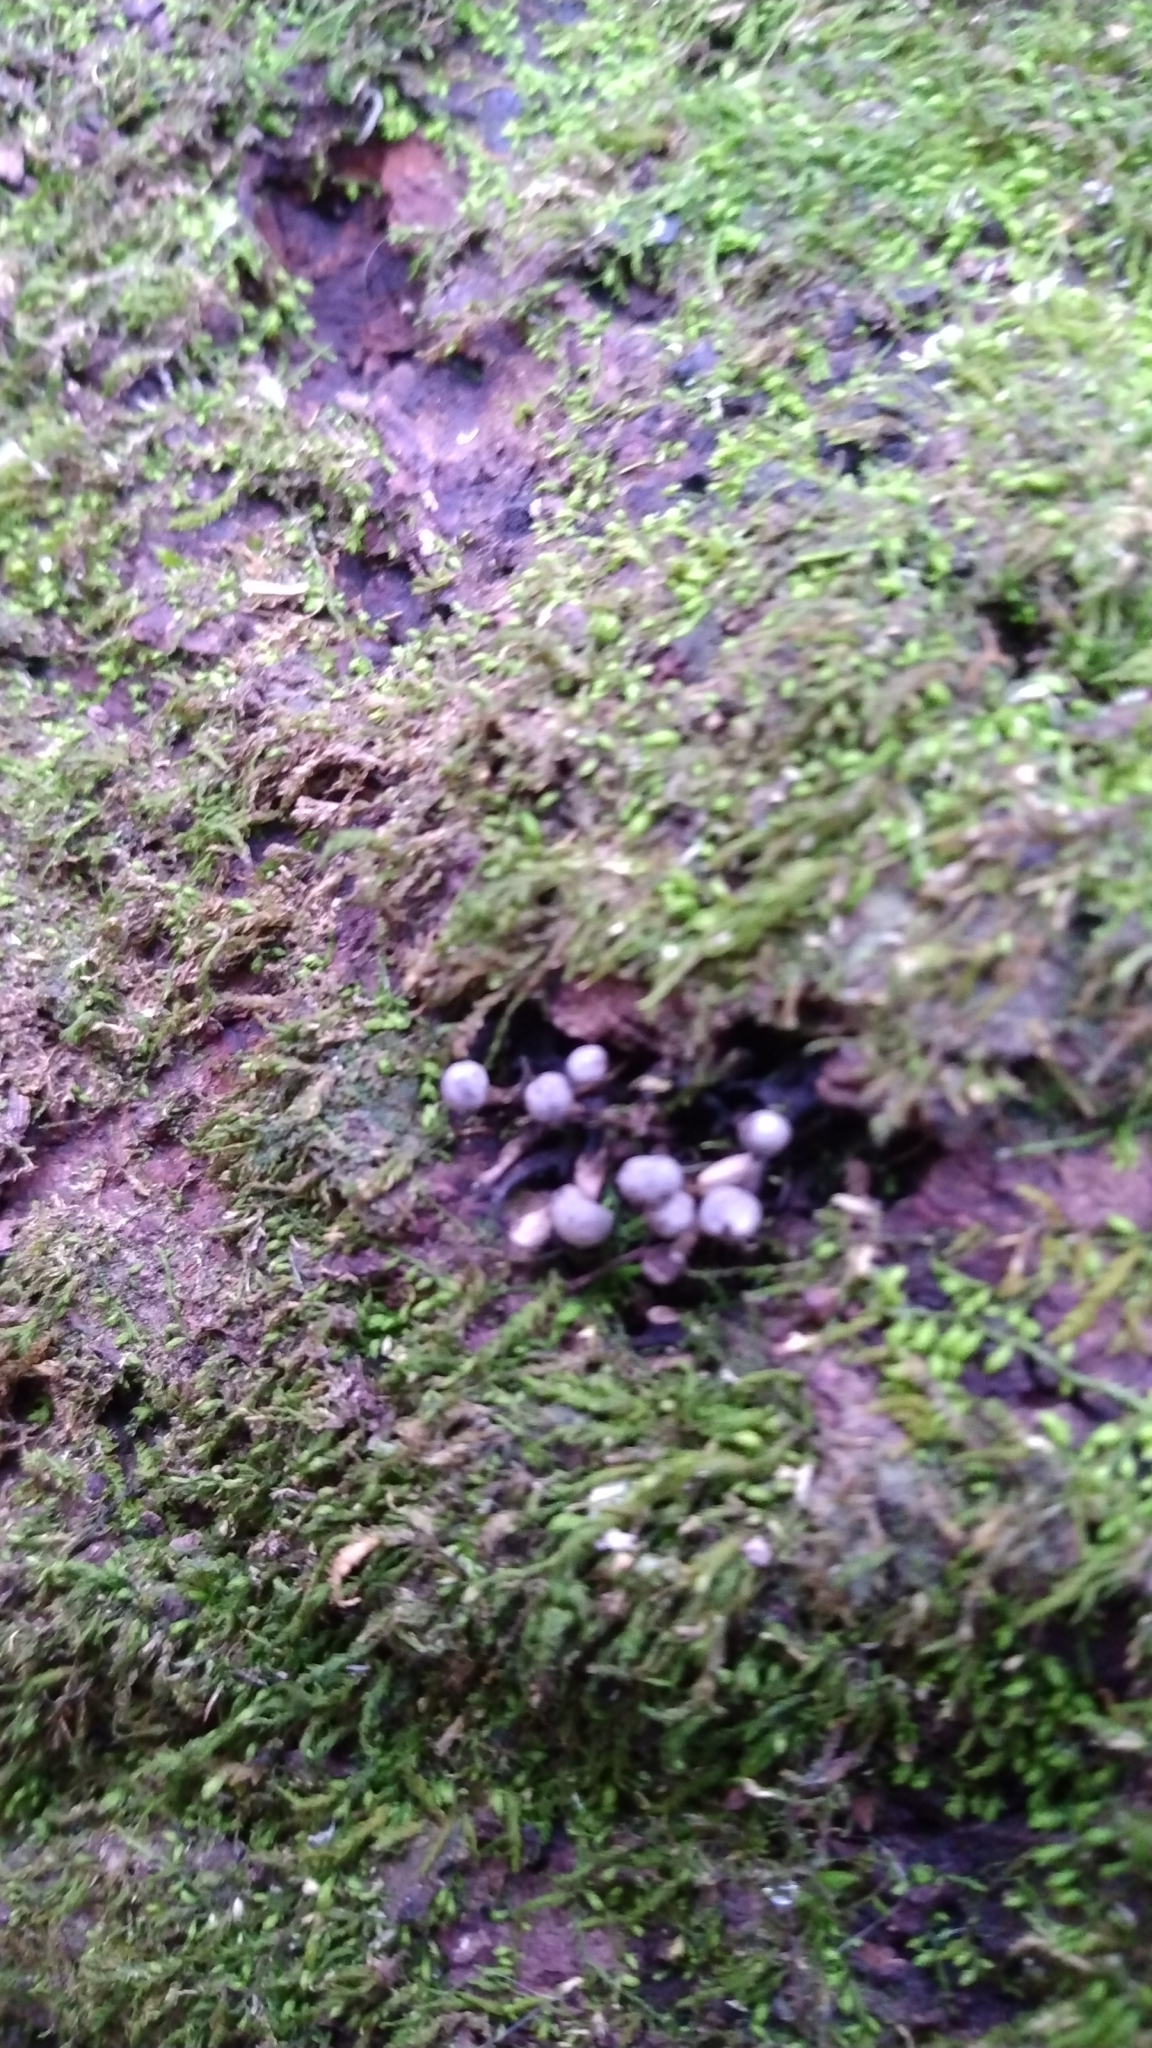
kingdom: Fungi
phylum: Basidiomycota
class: Atractiellomycetes
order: Atractiellales
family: Phleogenaceae
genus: Phleogena
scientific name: Phleogena faginea
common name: Fenugreek stalkball
